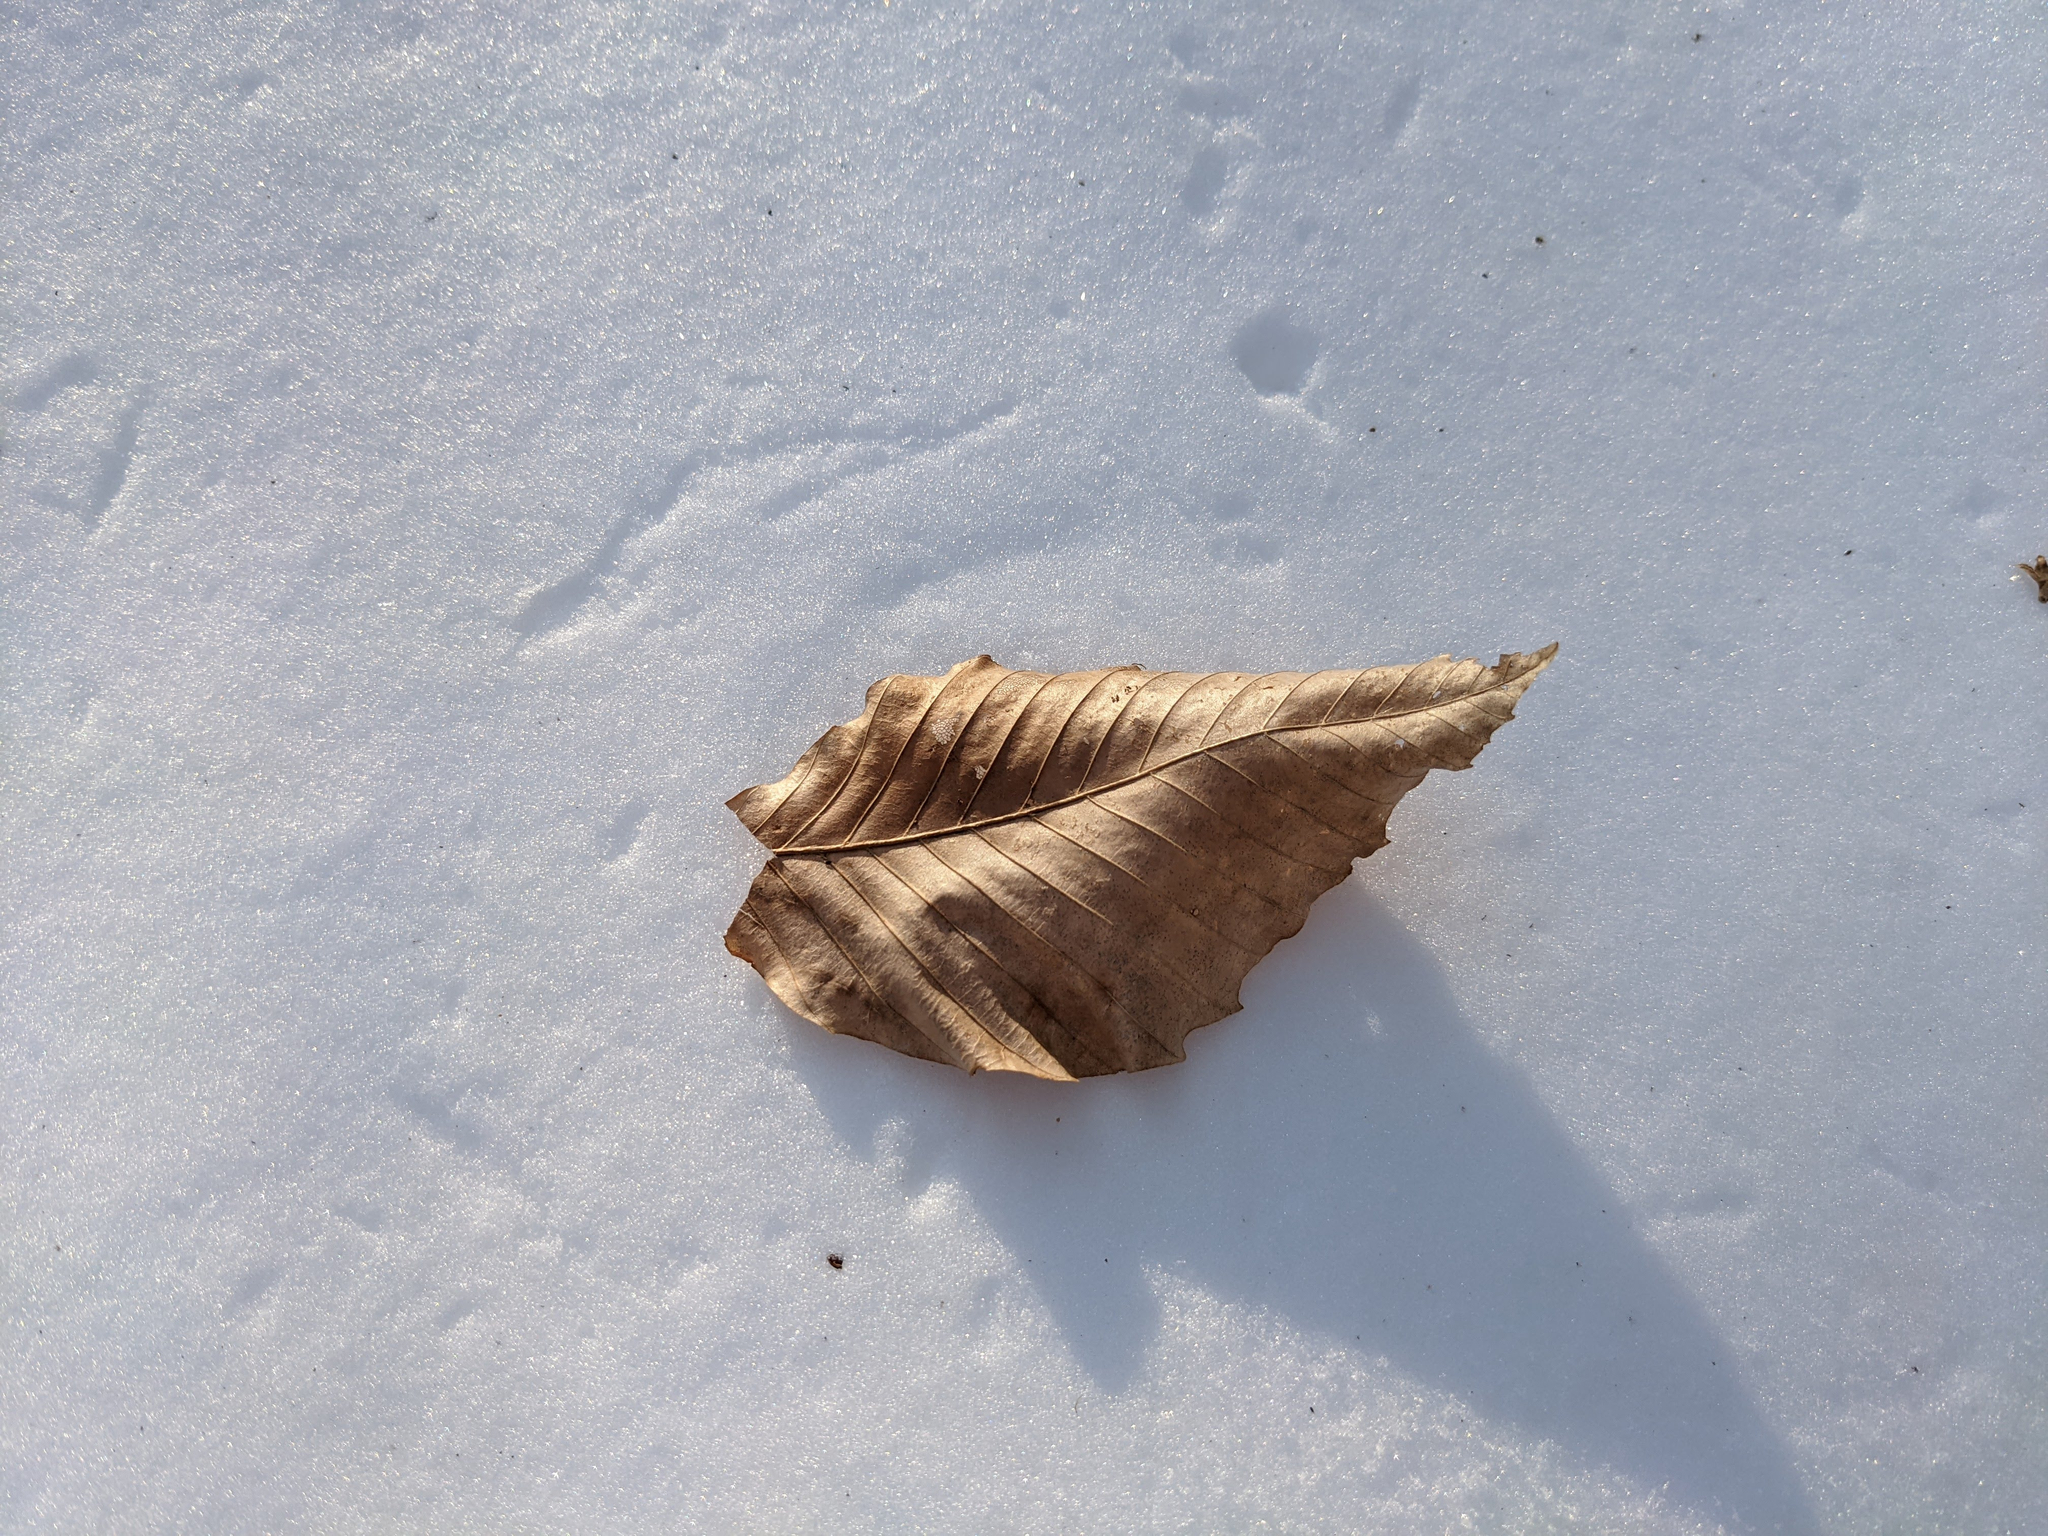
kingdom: Plantae
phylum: Tracheophyta
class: Magnoliopsida
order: Fagales
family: Fagaceae
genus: Fagus
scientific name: Fagus grandifolia
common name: American beech
